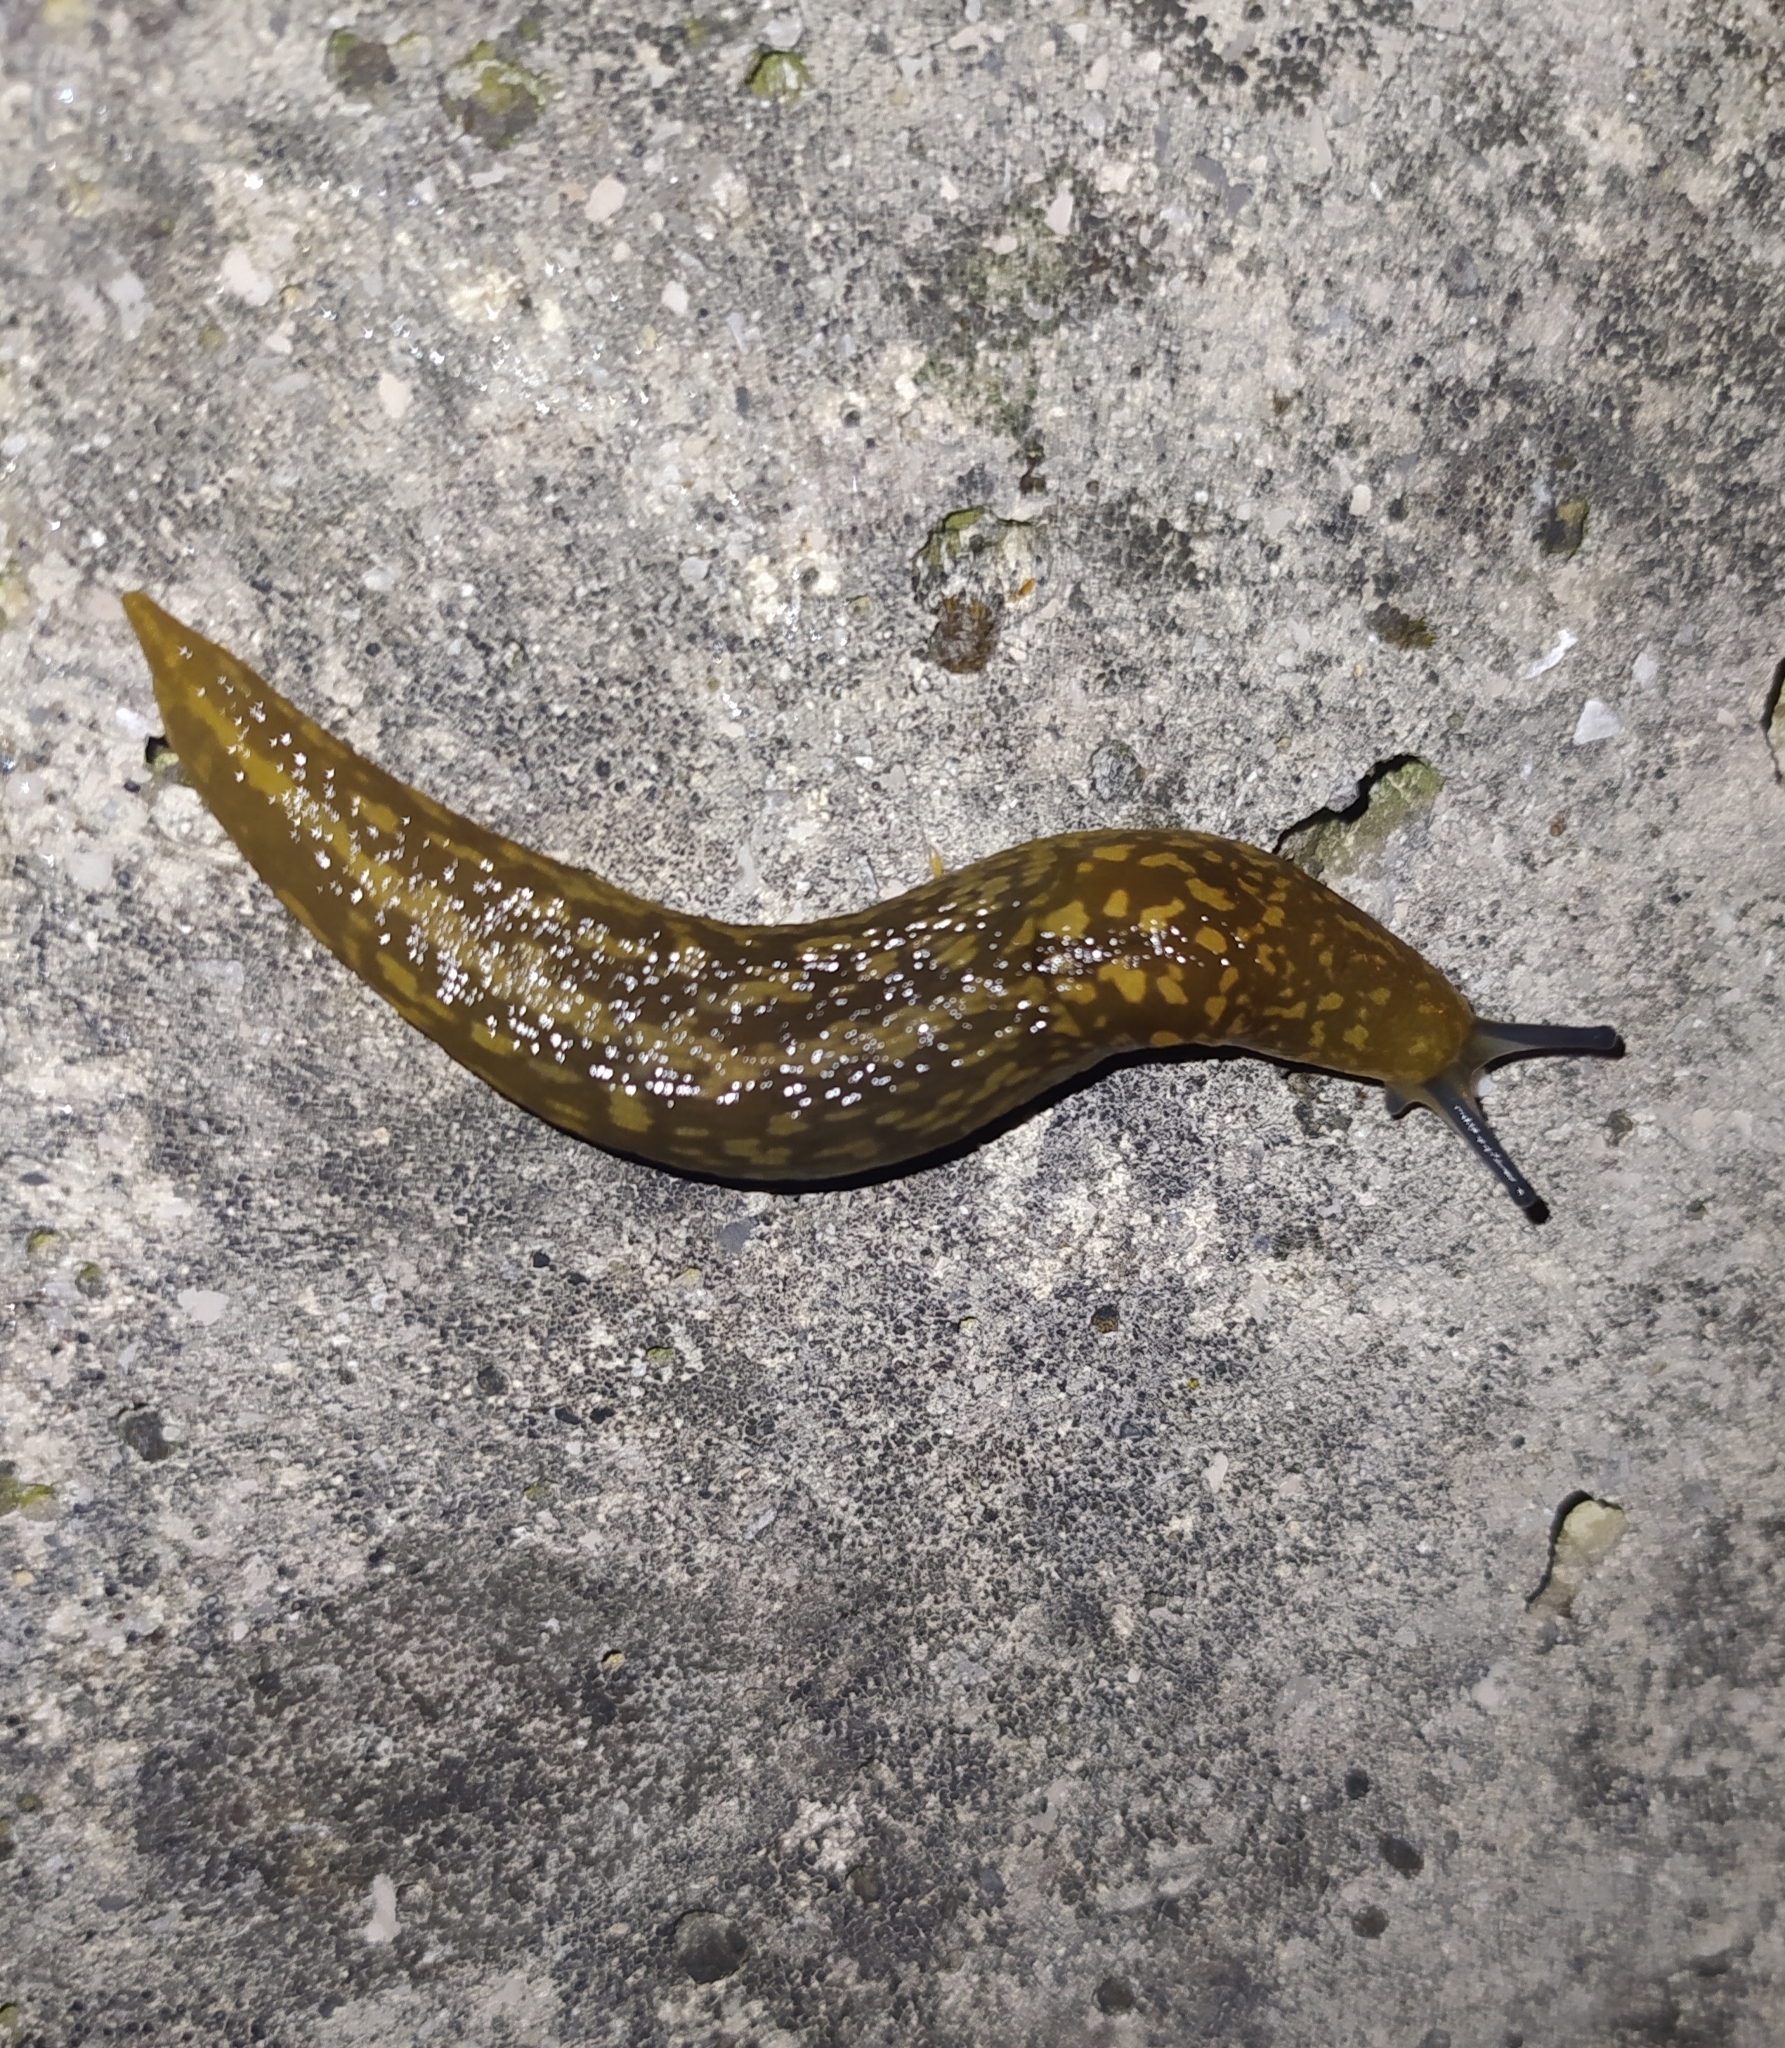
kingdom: Animalia
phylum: Mollusca
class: Gastropoda
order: Stylommatophora
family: Limacidae
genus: Limacus
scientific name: Limacus flavus
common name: Yellow gardenslug
